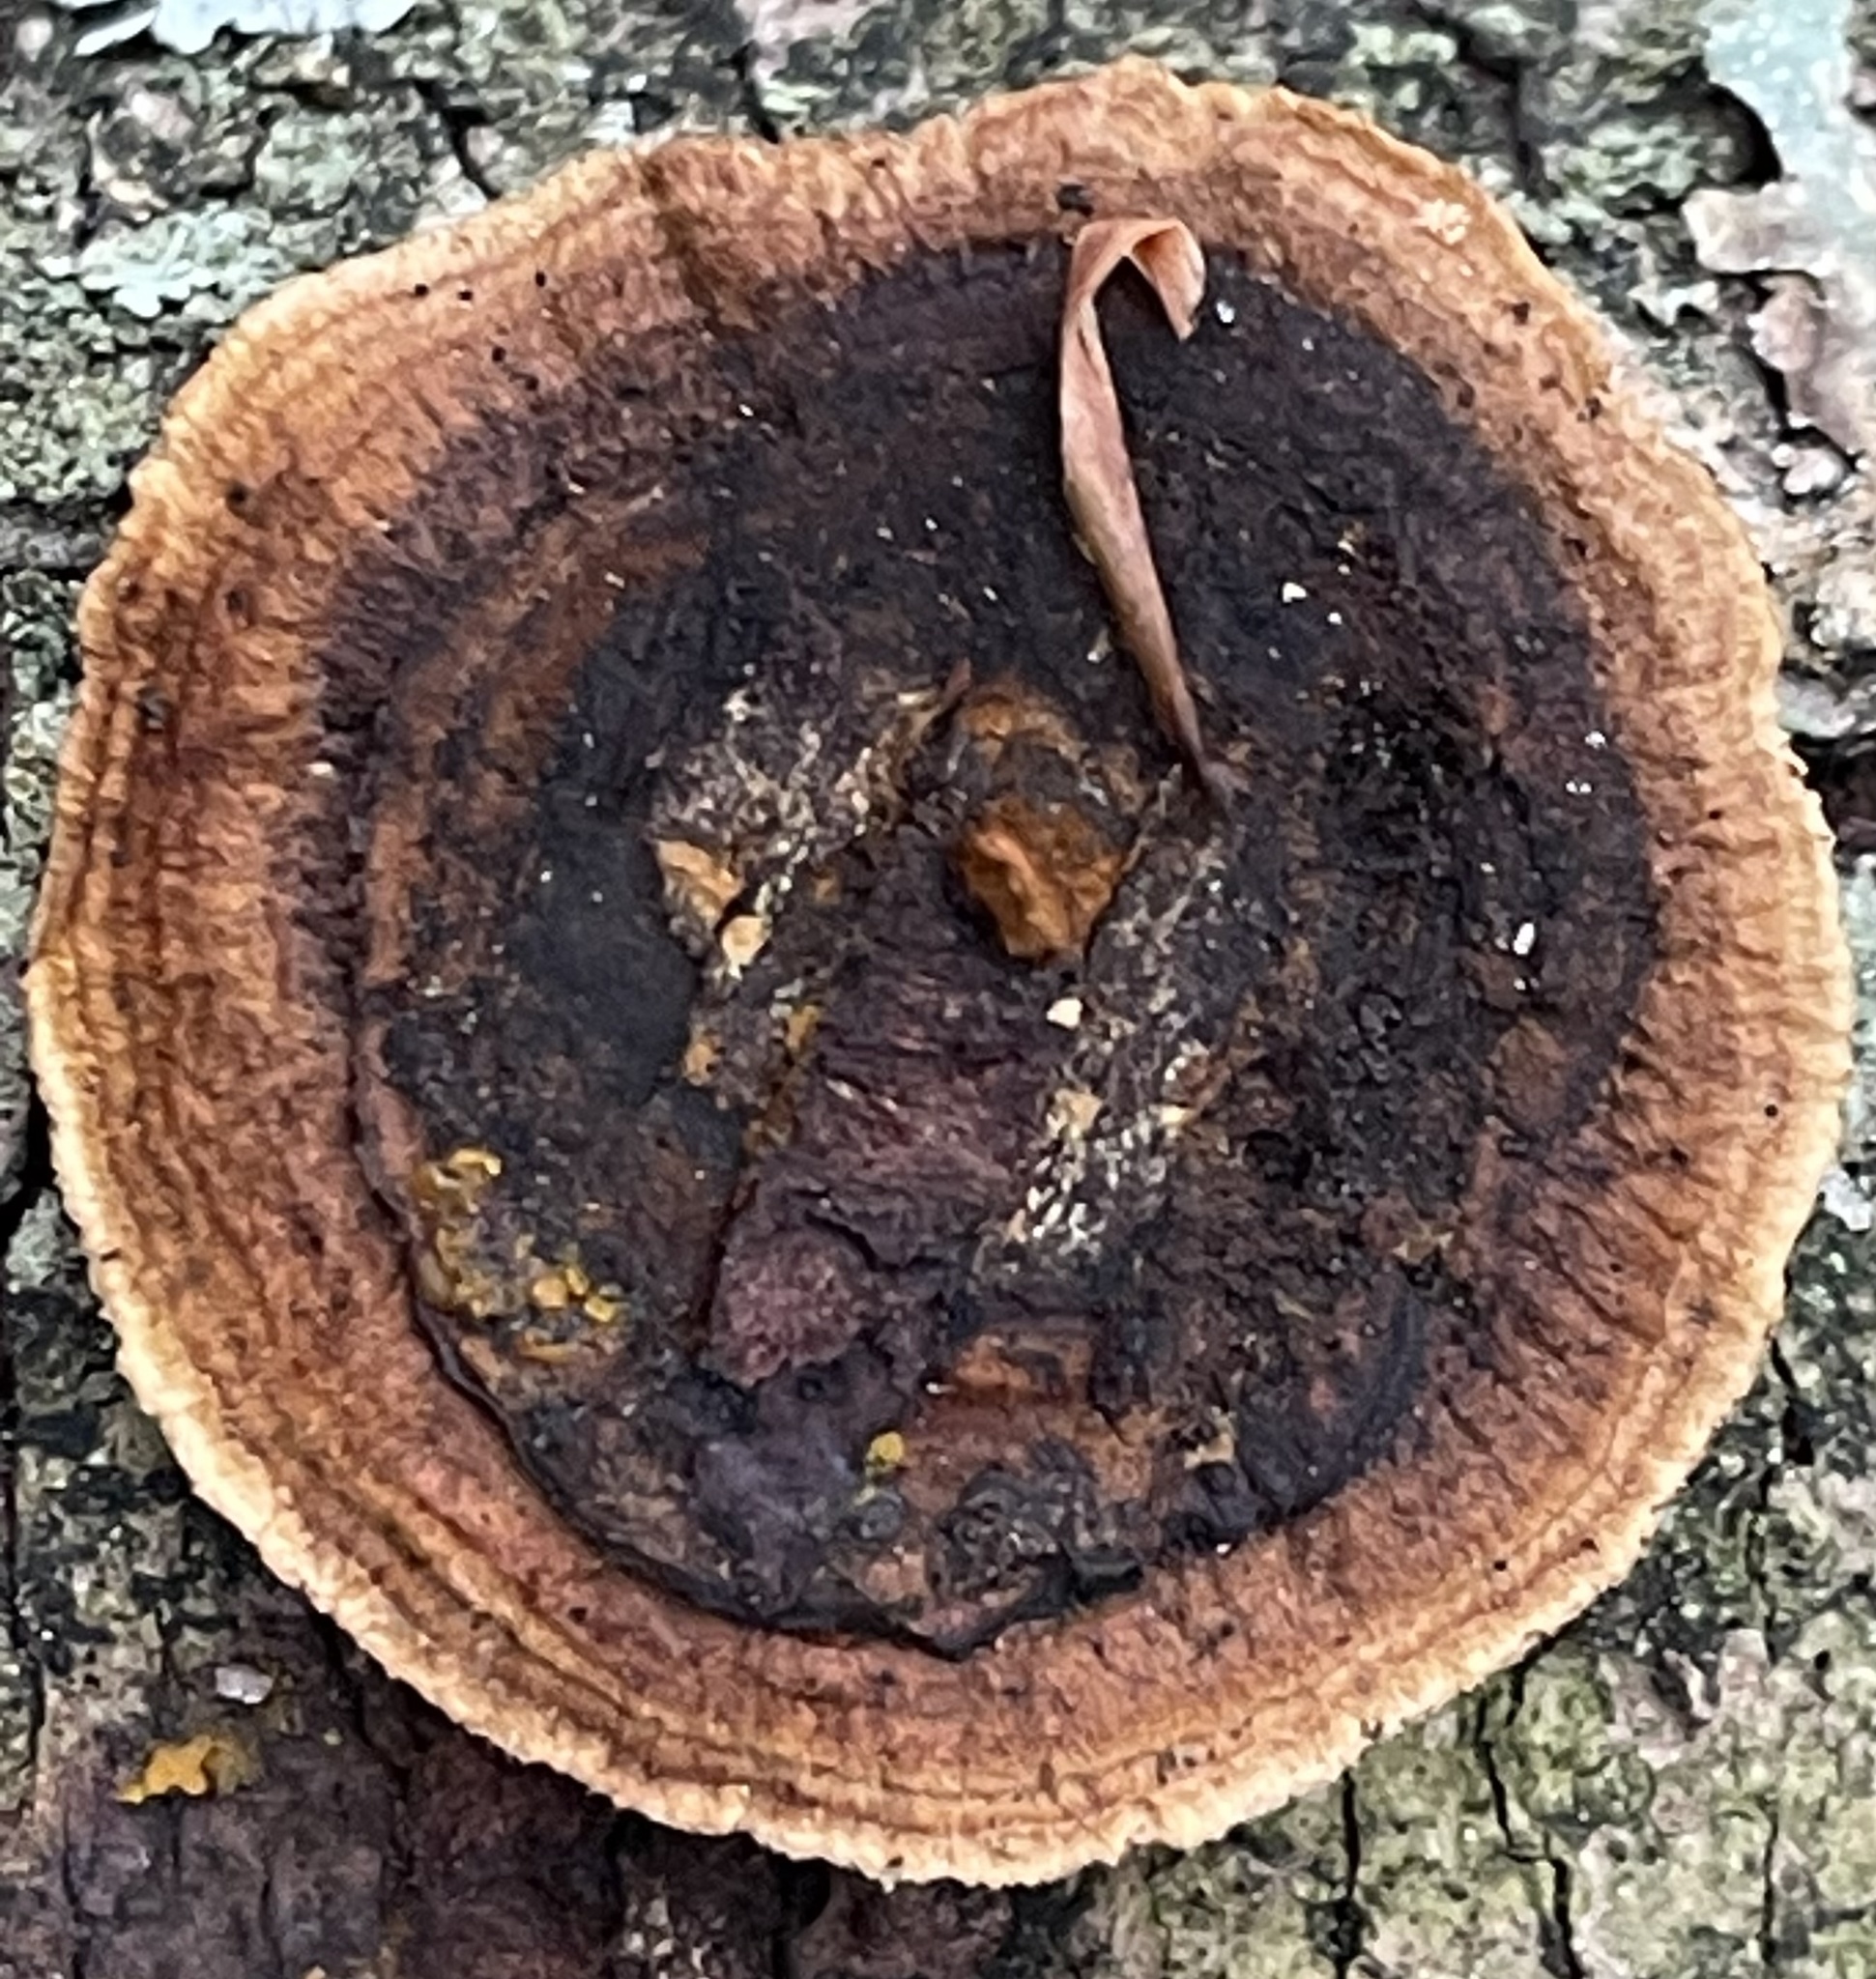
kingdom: Fungi
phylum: Basidiomycota
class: Agaricomycetes
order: Gloeophyllales
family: Gloeophyllaceae
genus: Gloeophyllum
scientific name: Gloeophyllum sepiarium
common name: Conifer mazegill
